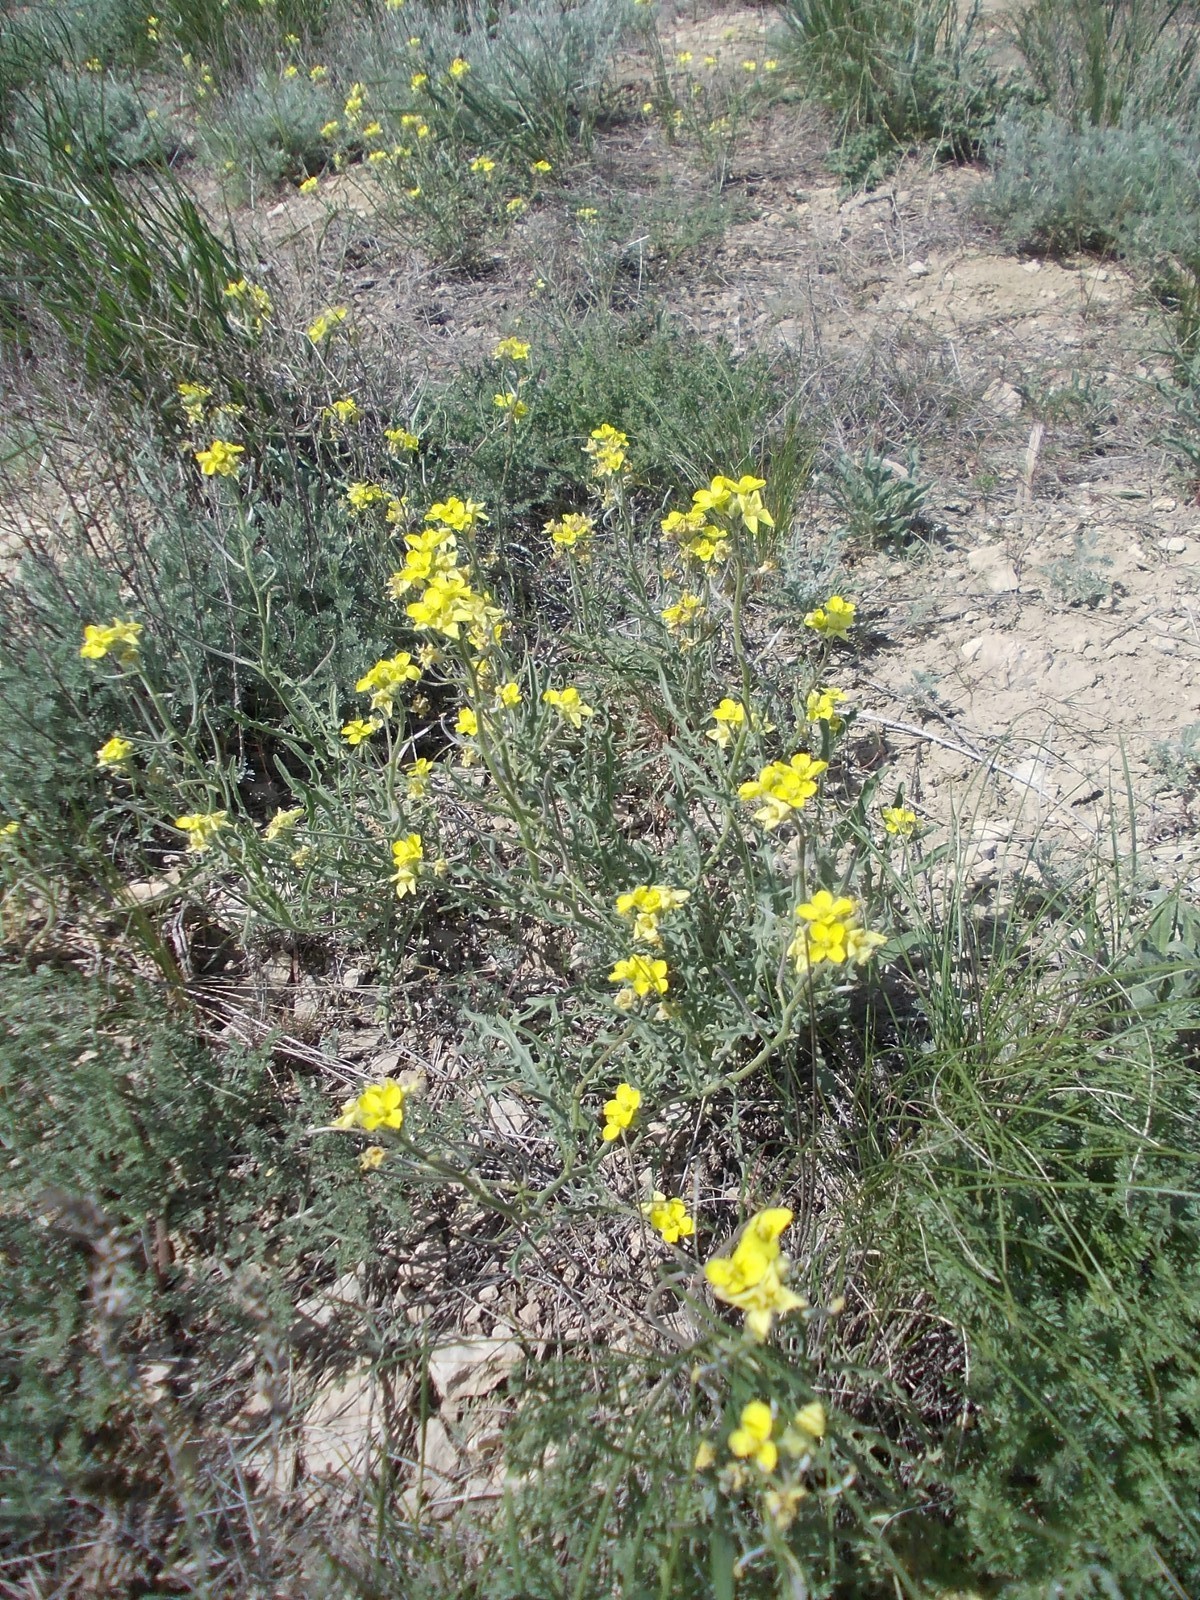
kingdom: Plantae
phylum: Tracheophyta
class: Magnoliopsida
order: Brassicales
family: Brassicaceae
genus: Sterigmostemum
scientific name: Sterigmostemum caspicum
